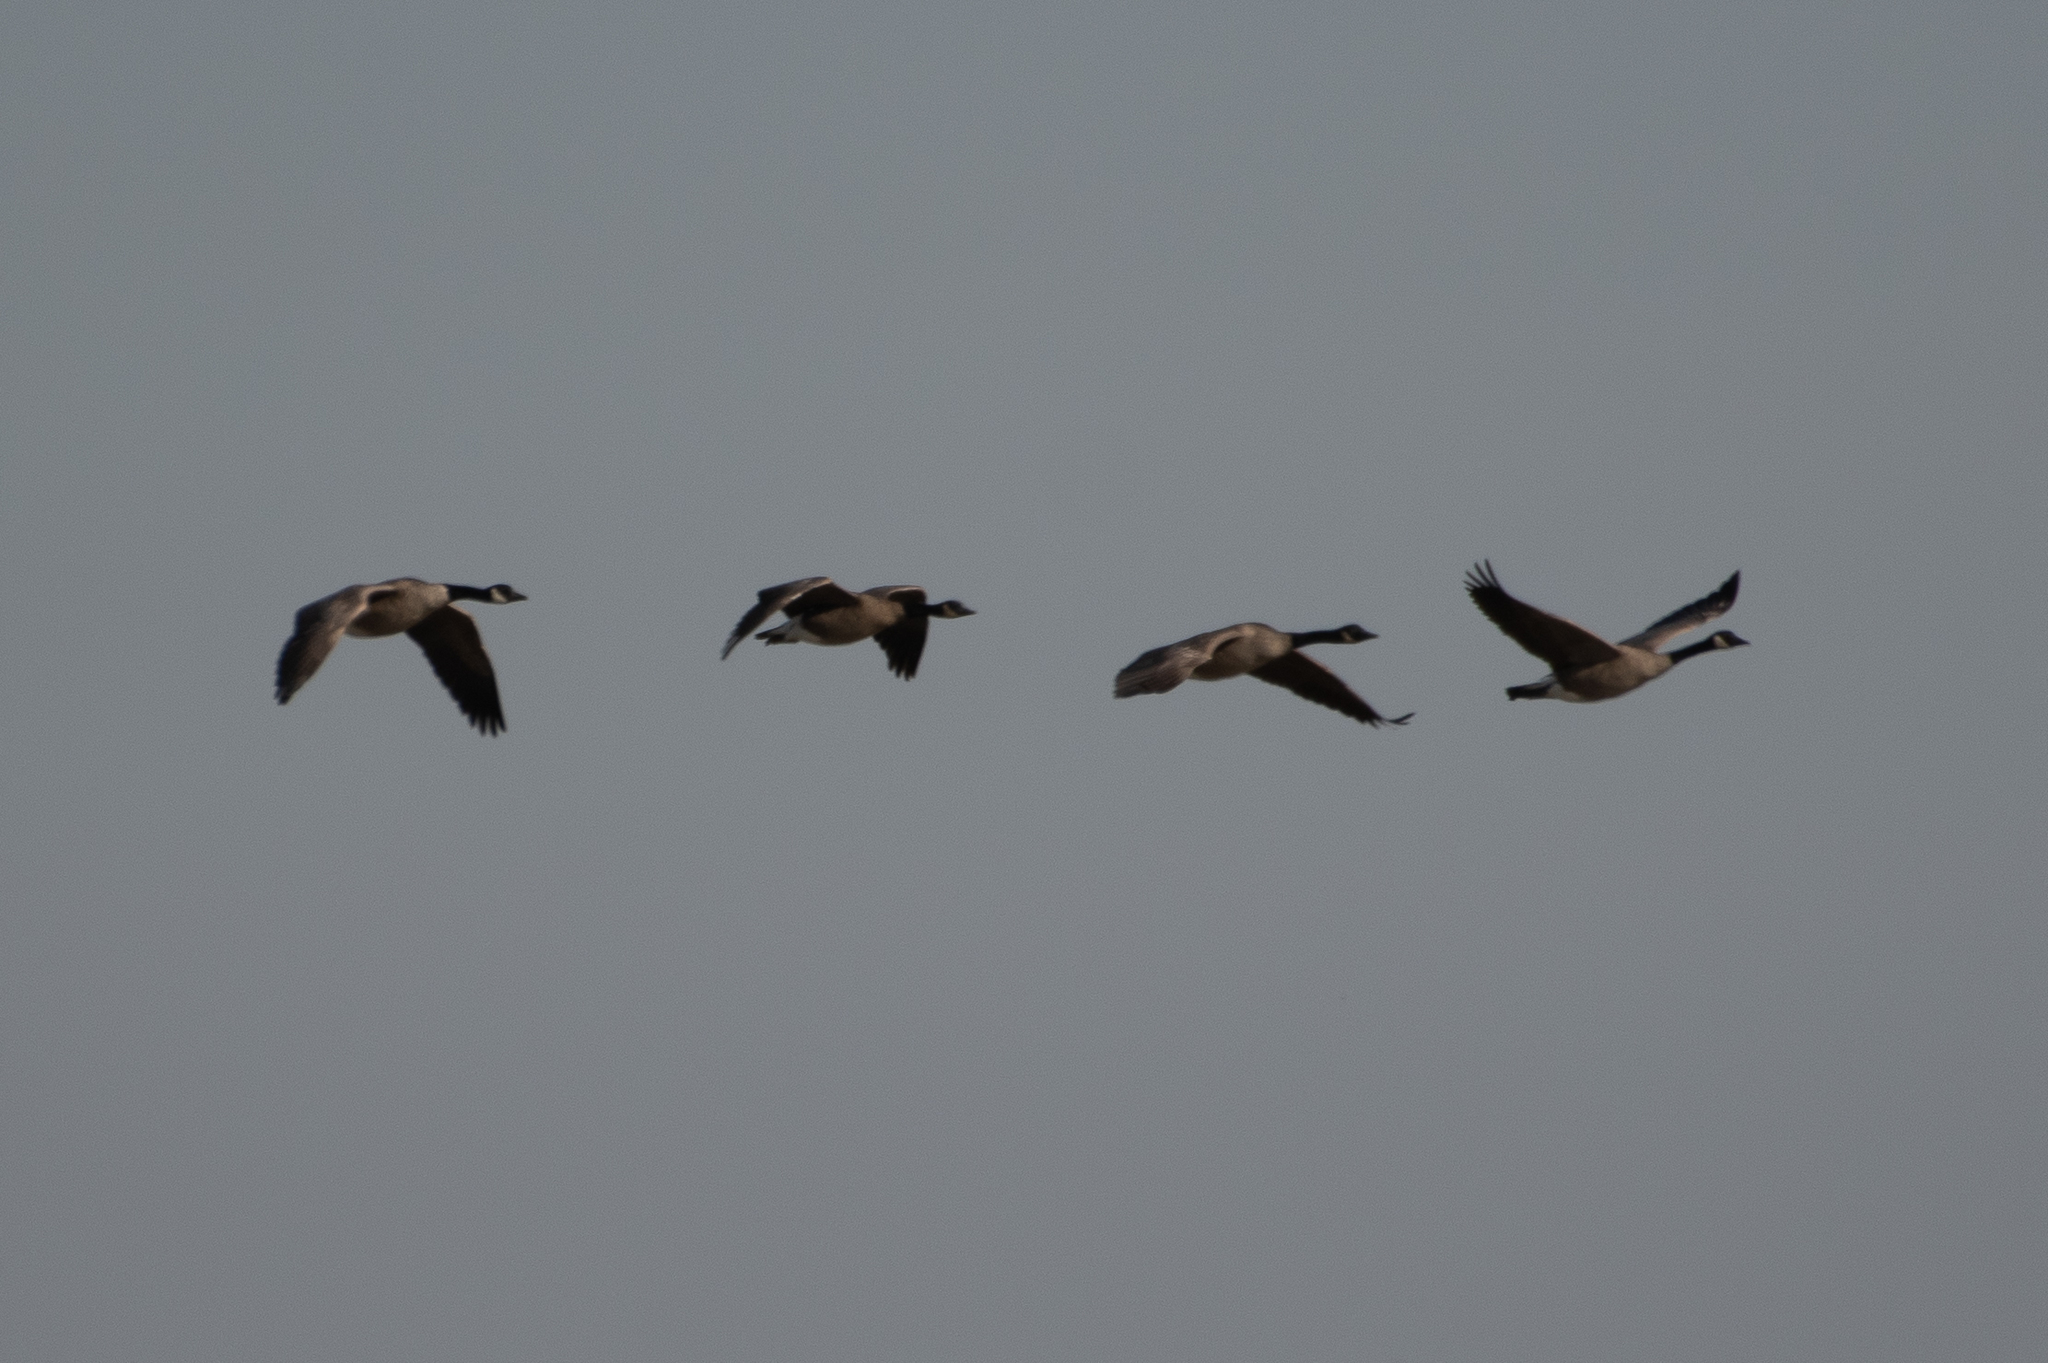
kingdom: Animalia
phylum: Chordata
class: Aves
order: Anseriformes
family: Anatidae
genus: Branta
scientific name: Branta canadensis
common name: Canada goose
